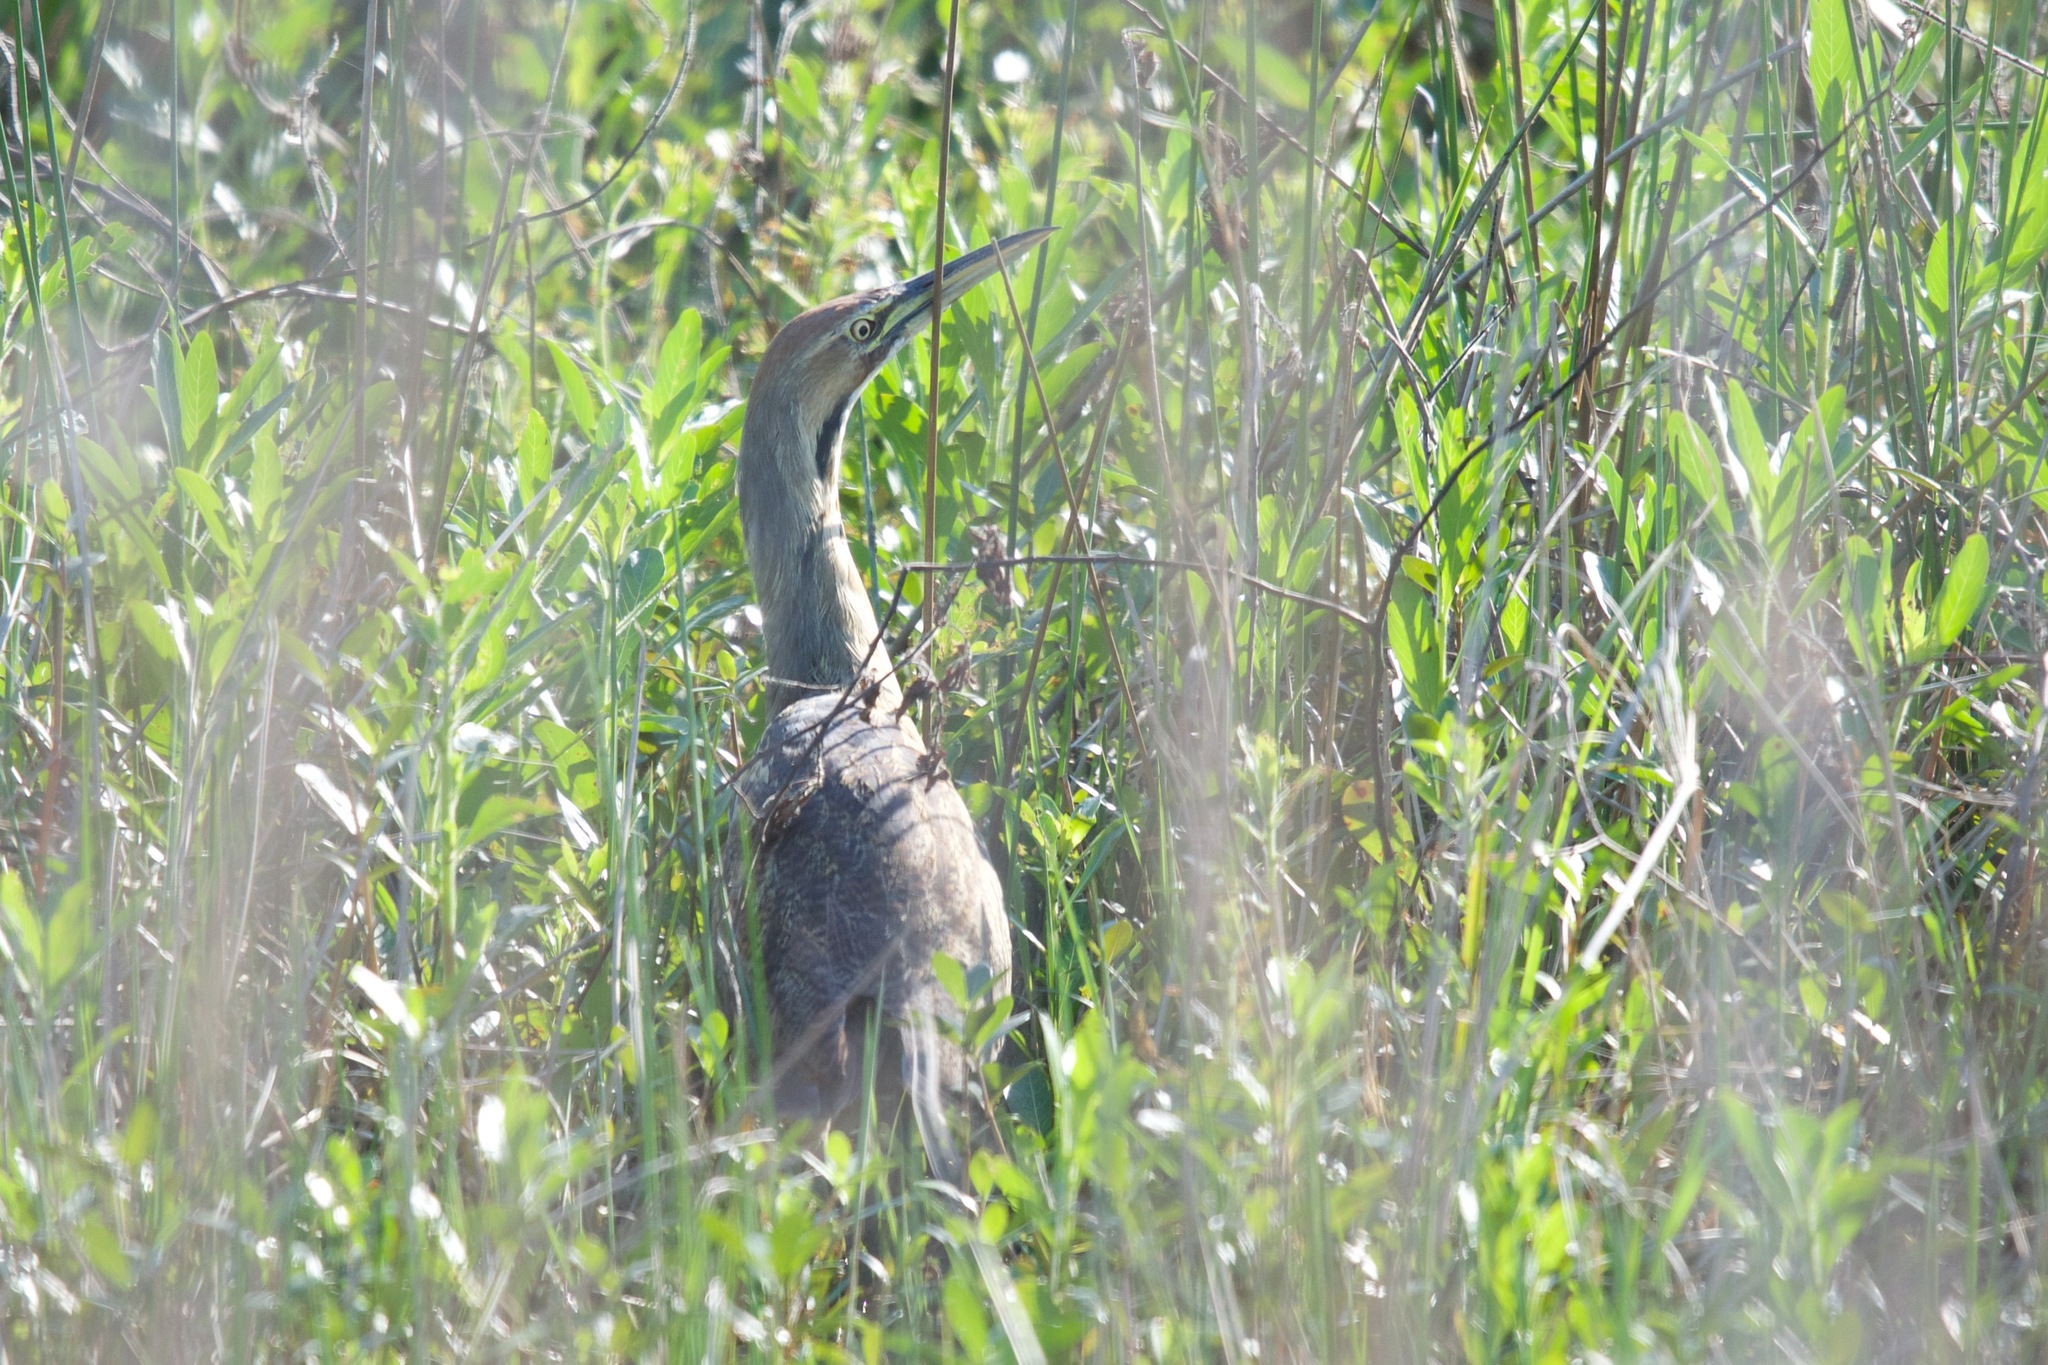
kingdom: Animalia
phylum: Chordata
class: Aves
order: Pelecaniformes
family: Ardeidae
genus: Botaurus
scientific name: Botaurus lentiginosus
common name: American bittern
